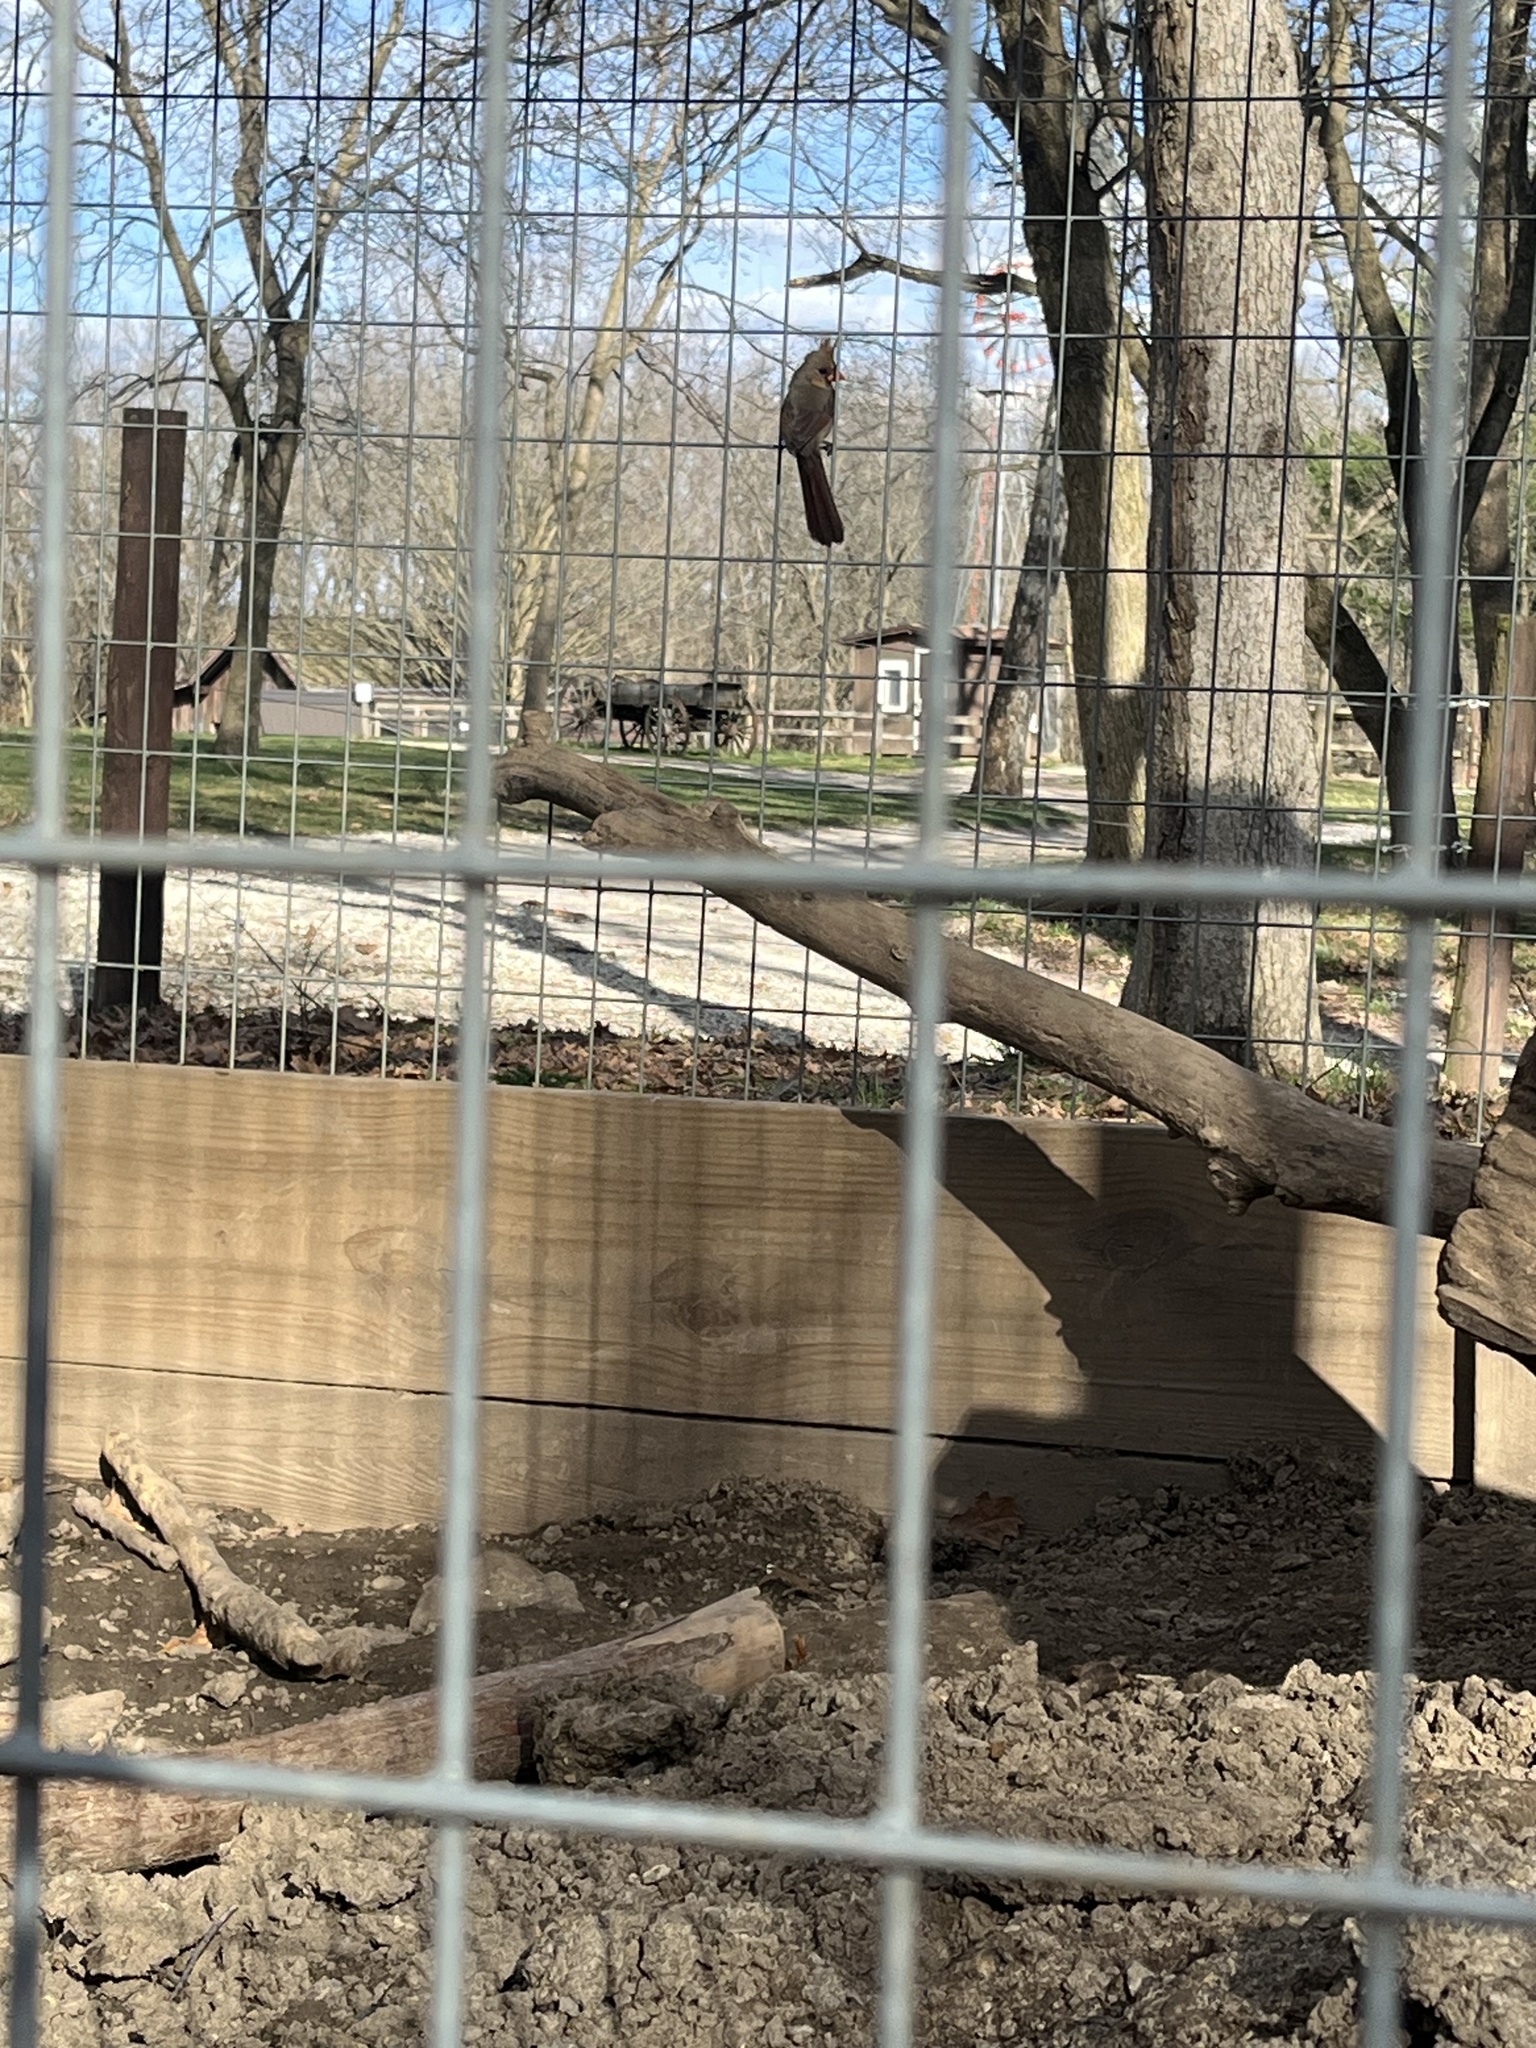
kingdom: Animalia
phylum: Chordata
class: Aves
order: Passeriformes
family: Cardinalidae
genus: Cardinalis
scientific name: Cardinalis cardinalis
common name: Northern cardinal
